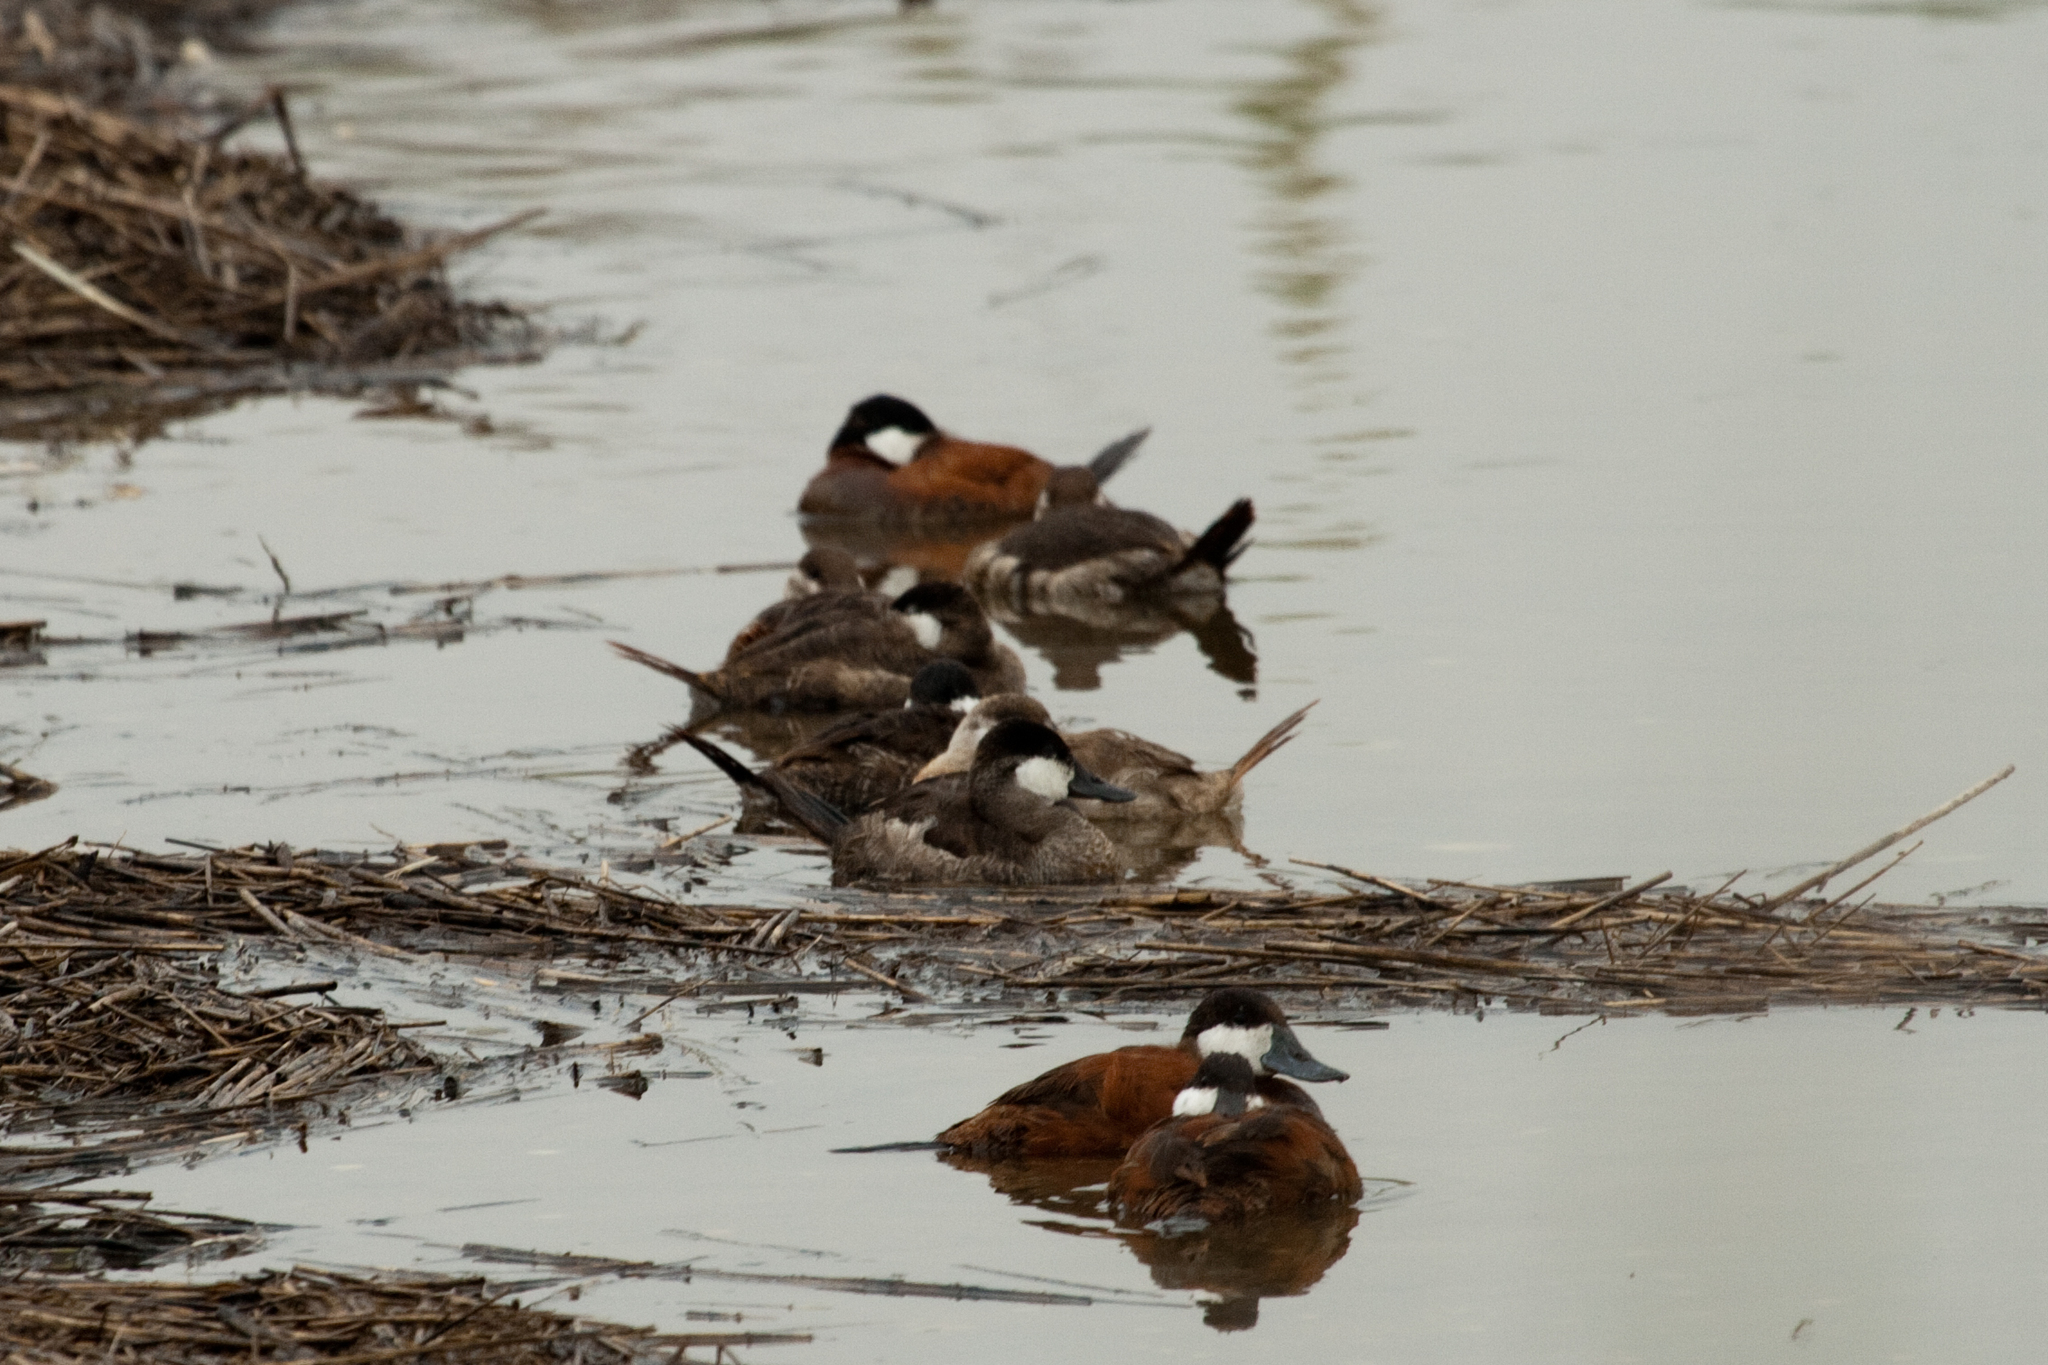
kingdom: Animalia
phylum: Chordata
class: Aves
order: Anseriformes
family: Anatidae
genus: Oxyura
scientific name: Oxyura jamaicensis
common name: Ruddy duck
